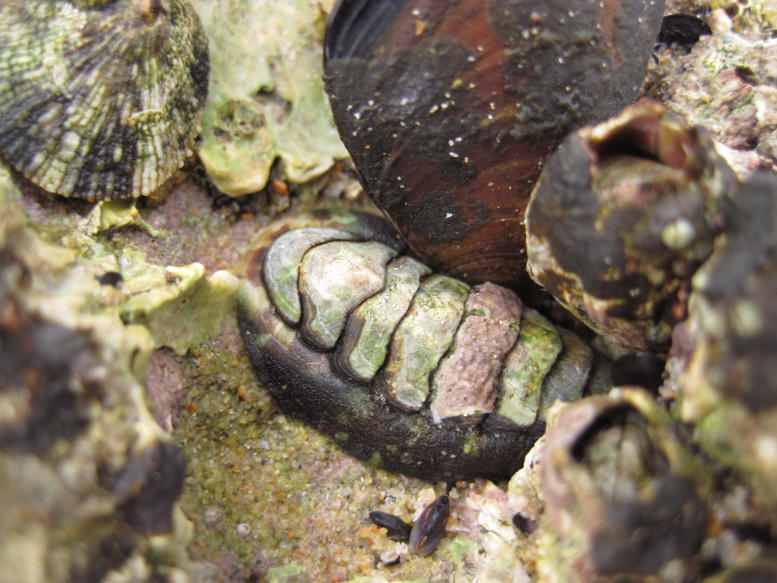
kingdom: Animalia
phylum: Mollusca
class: Polyplacophora
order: Chitonida
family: Chitonidae
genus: Onithochiton
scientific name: Onithochiton literatus
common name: Black chiton
